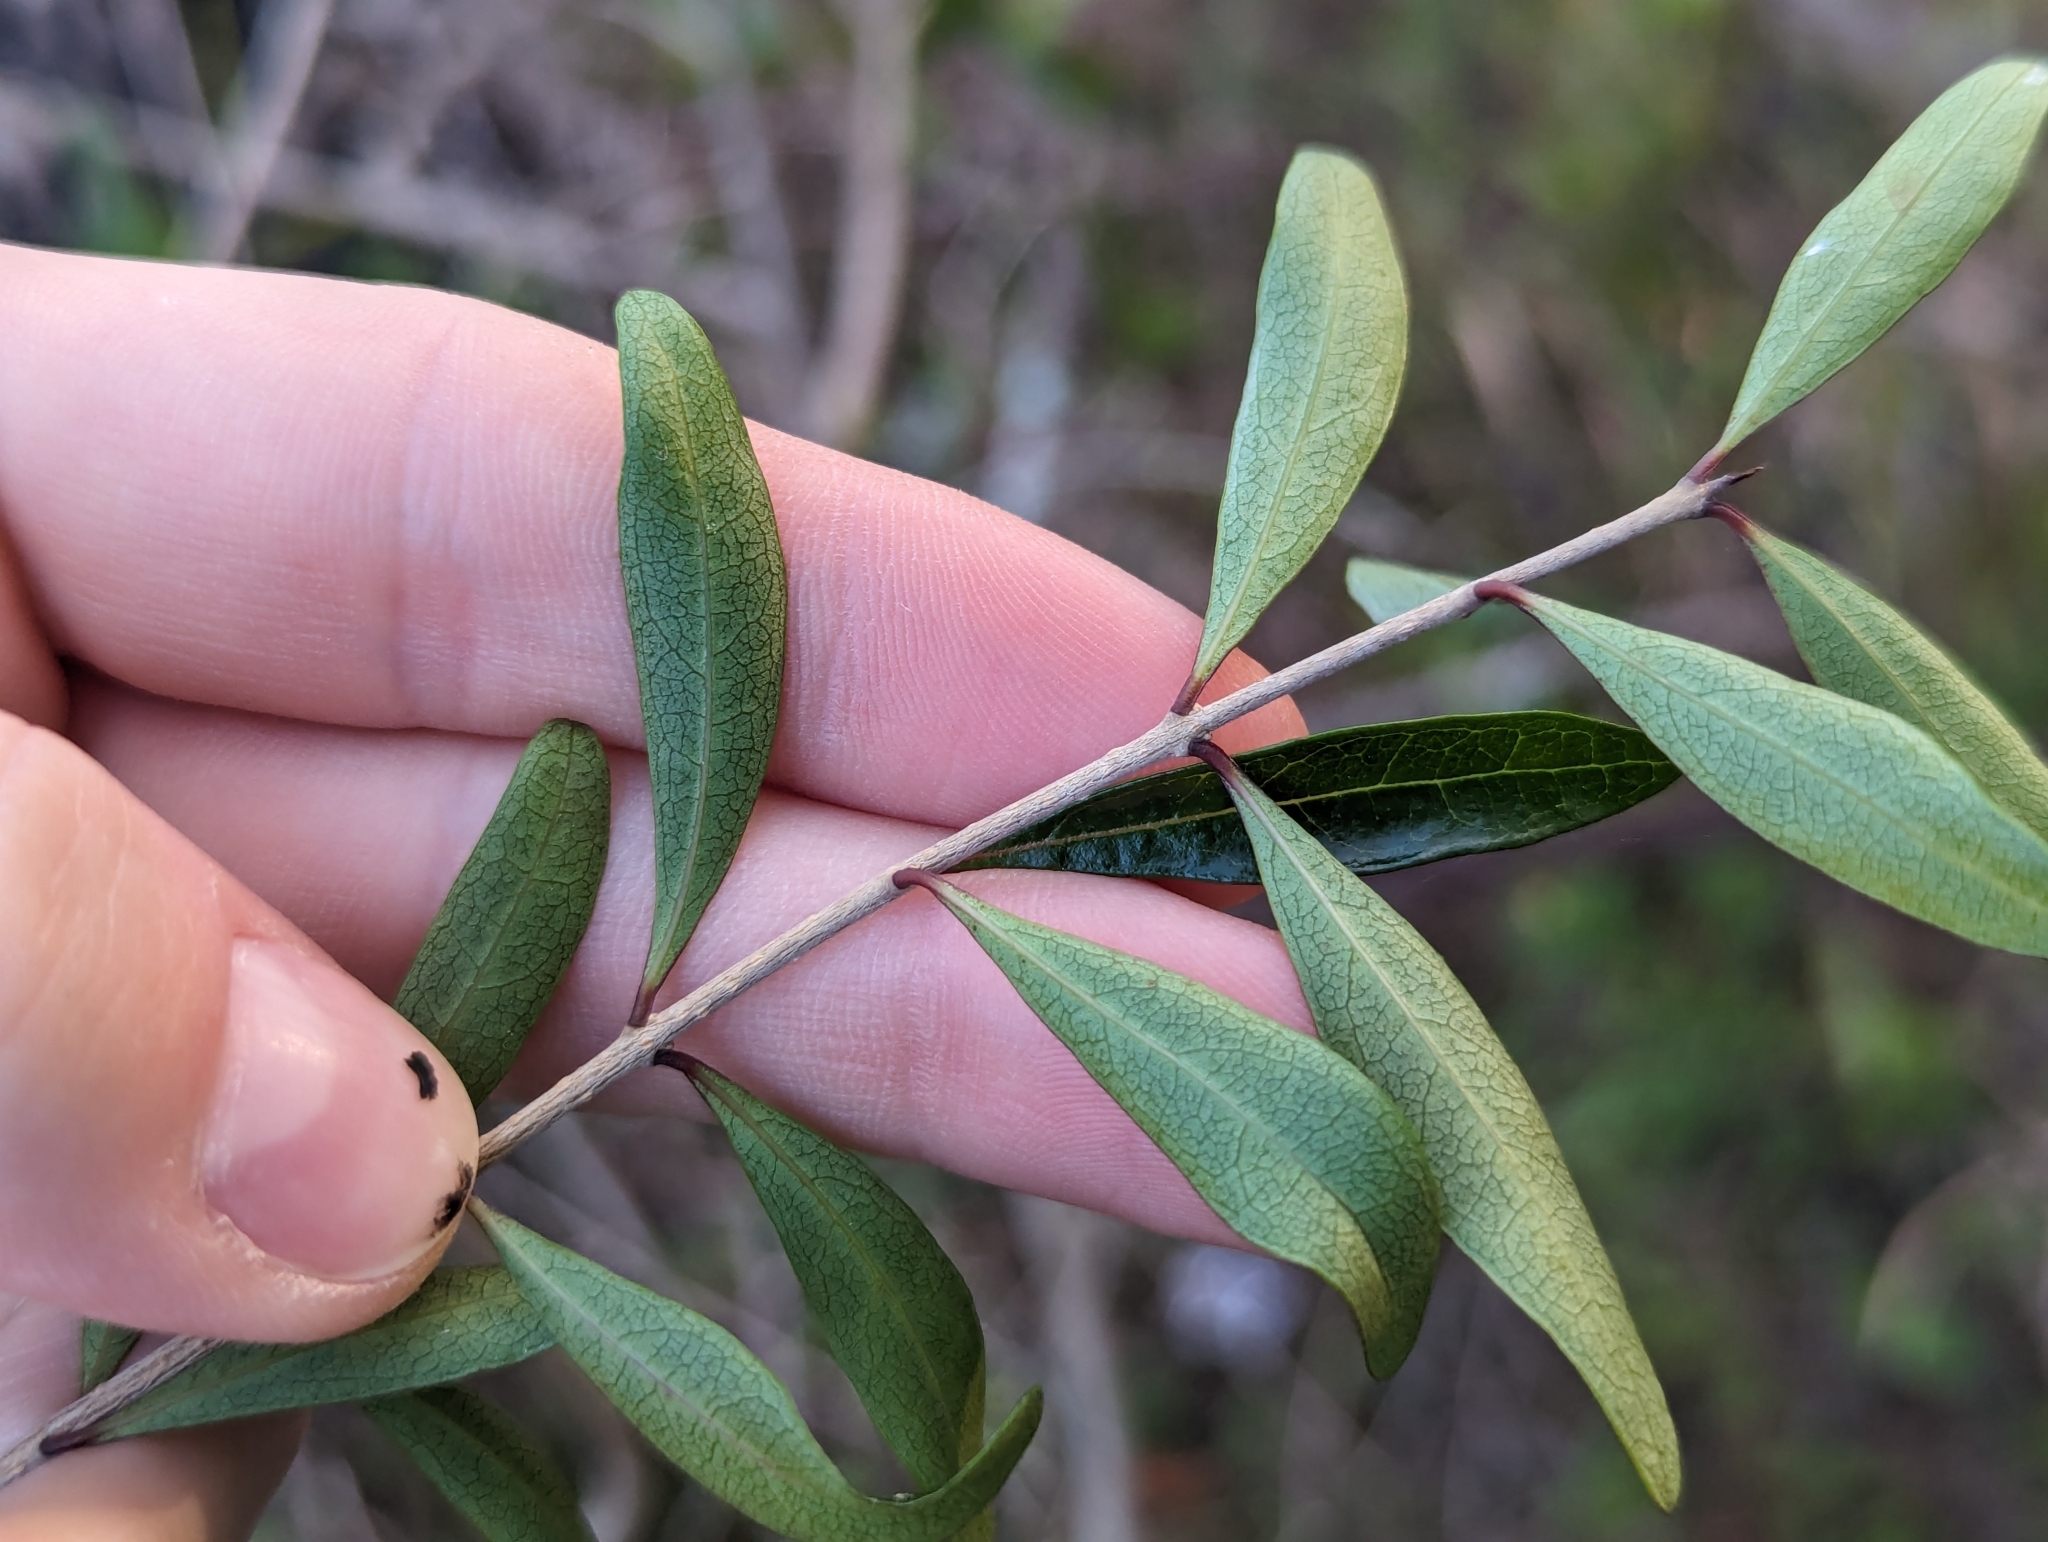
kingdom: Plantae
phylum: Tracheophyta
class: Magnoliopsida
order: Lamiales
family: Oleaceae
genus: Forestiera
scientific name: Forestiera segregata
